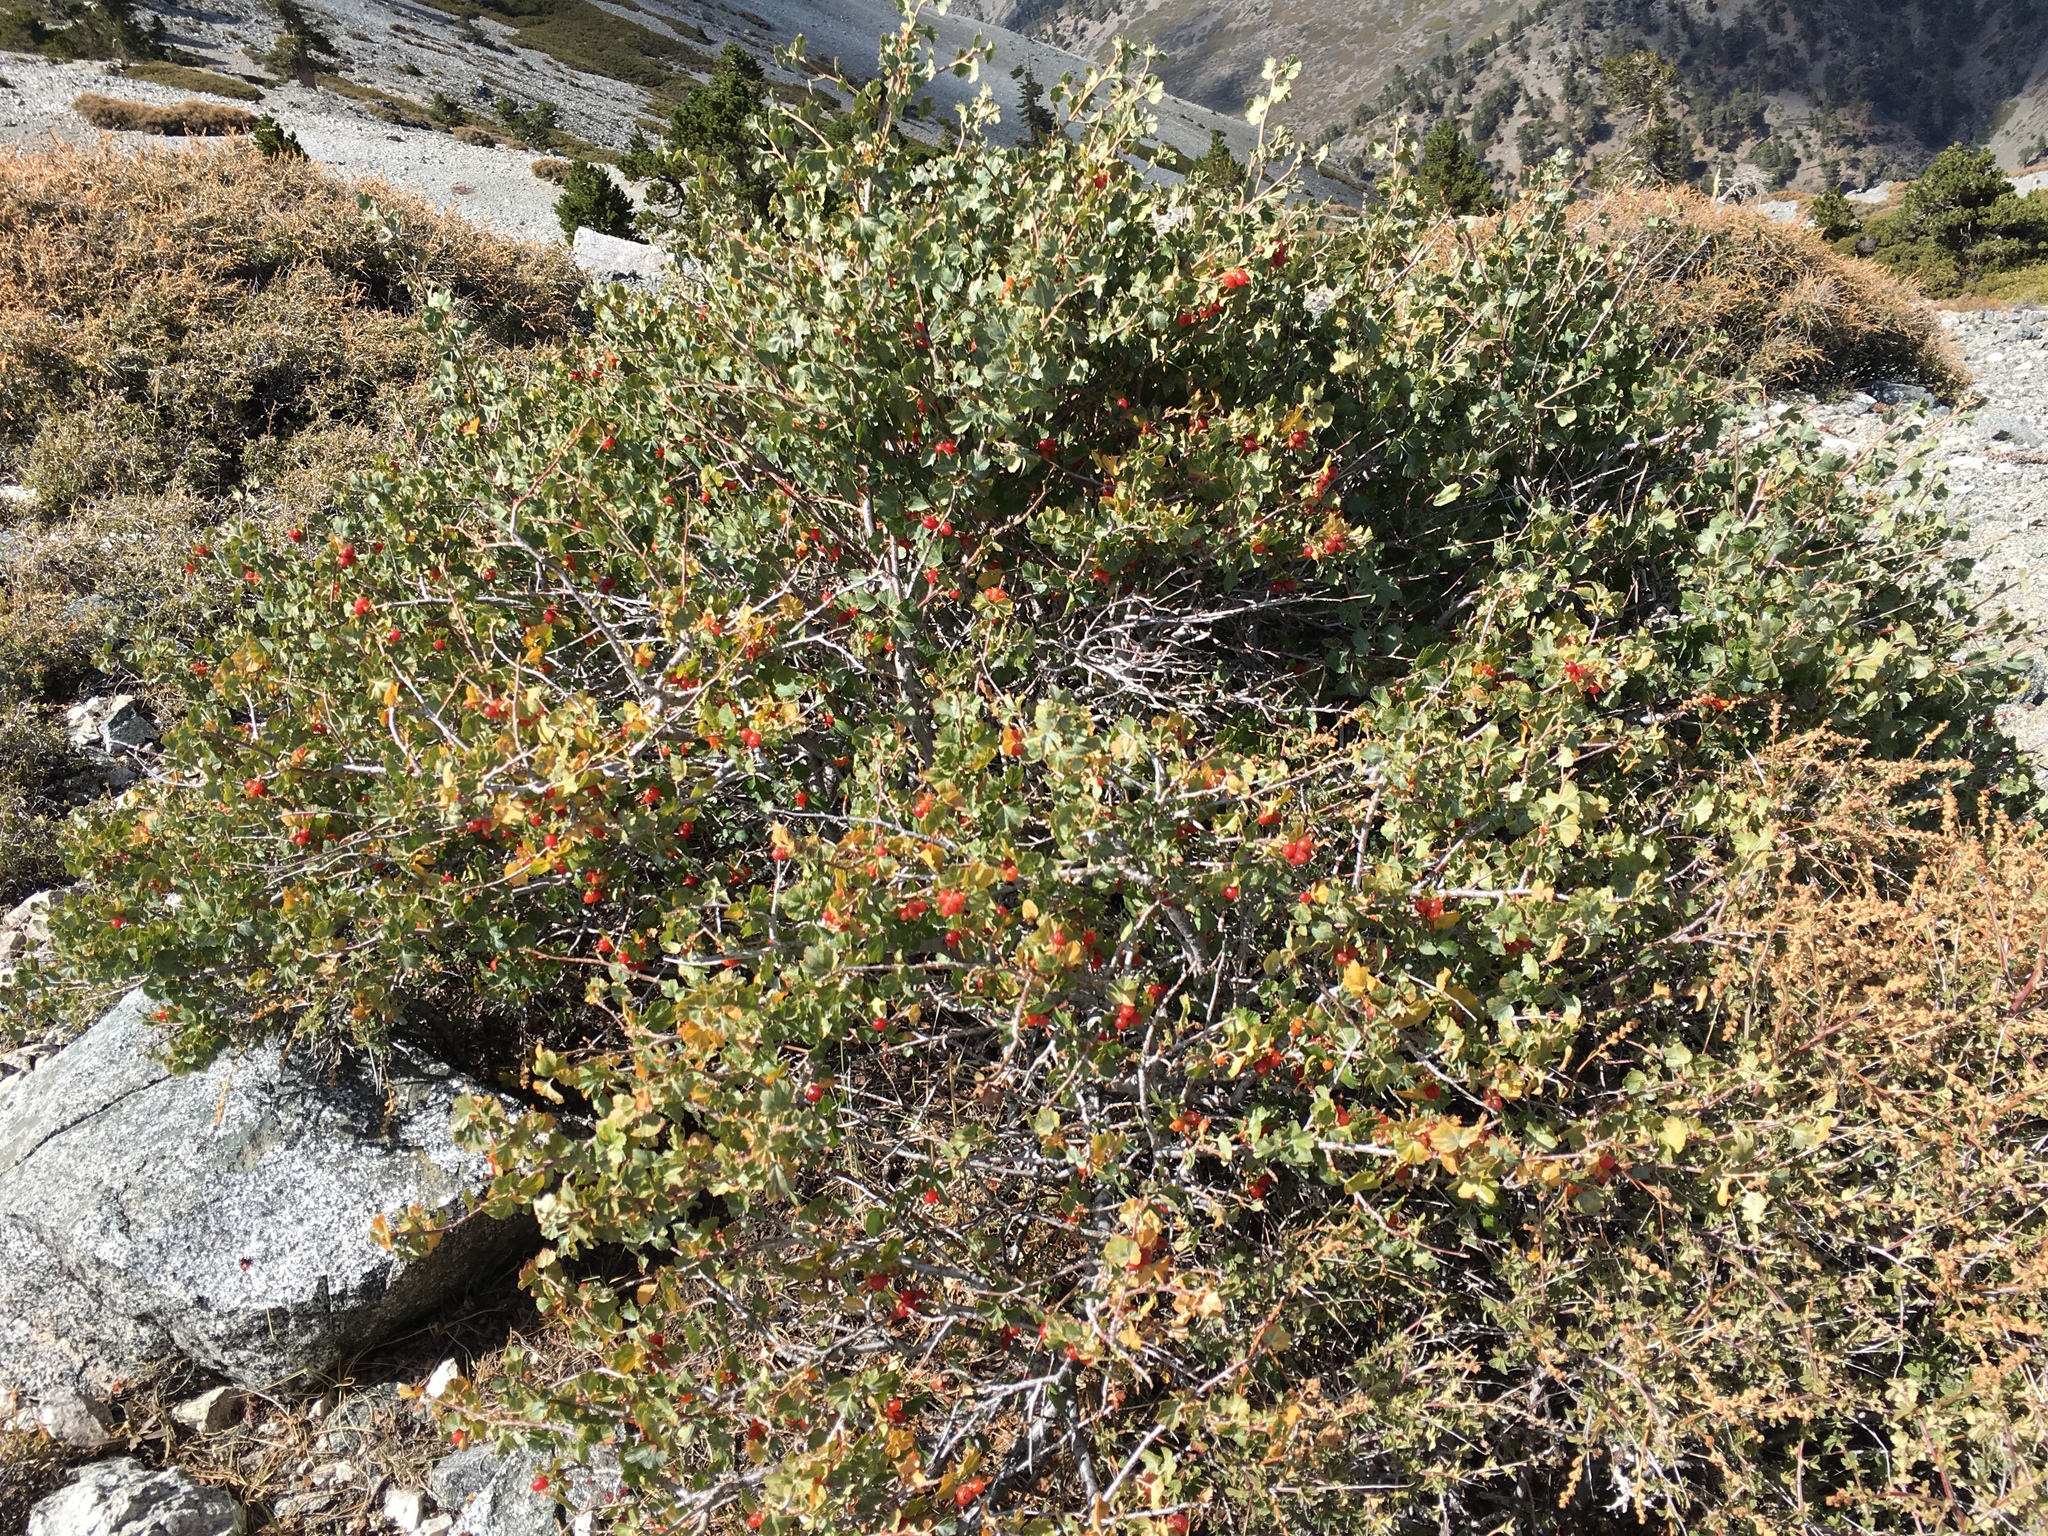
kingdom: Plantae
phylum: Tracheophyta
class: Magnoliopsida
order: Saxifragales
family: Grossulariaceae
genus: Ribes
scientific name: Ribes cereum
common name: Wax currant
